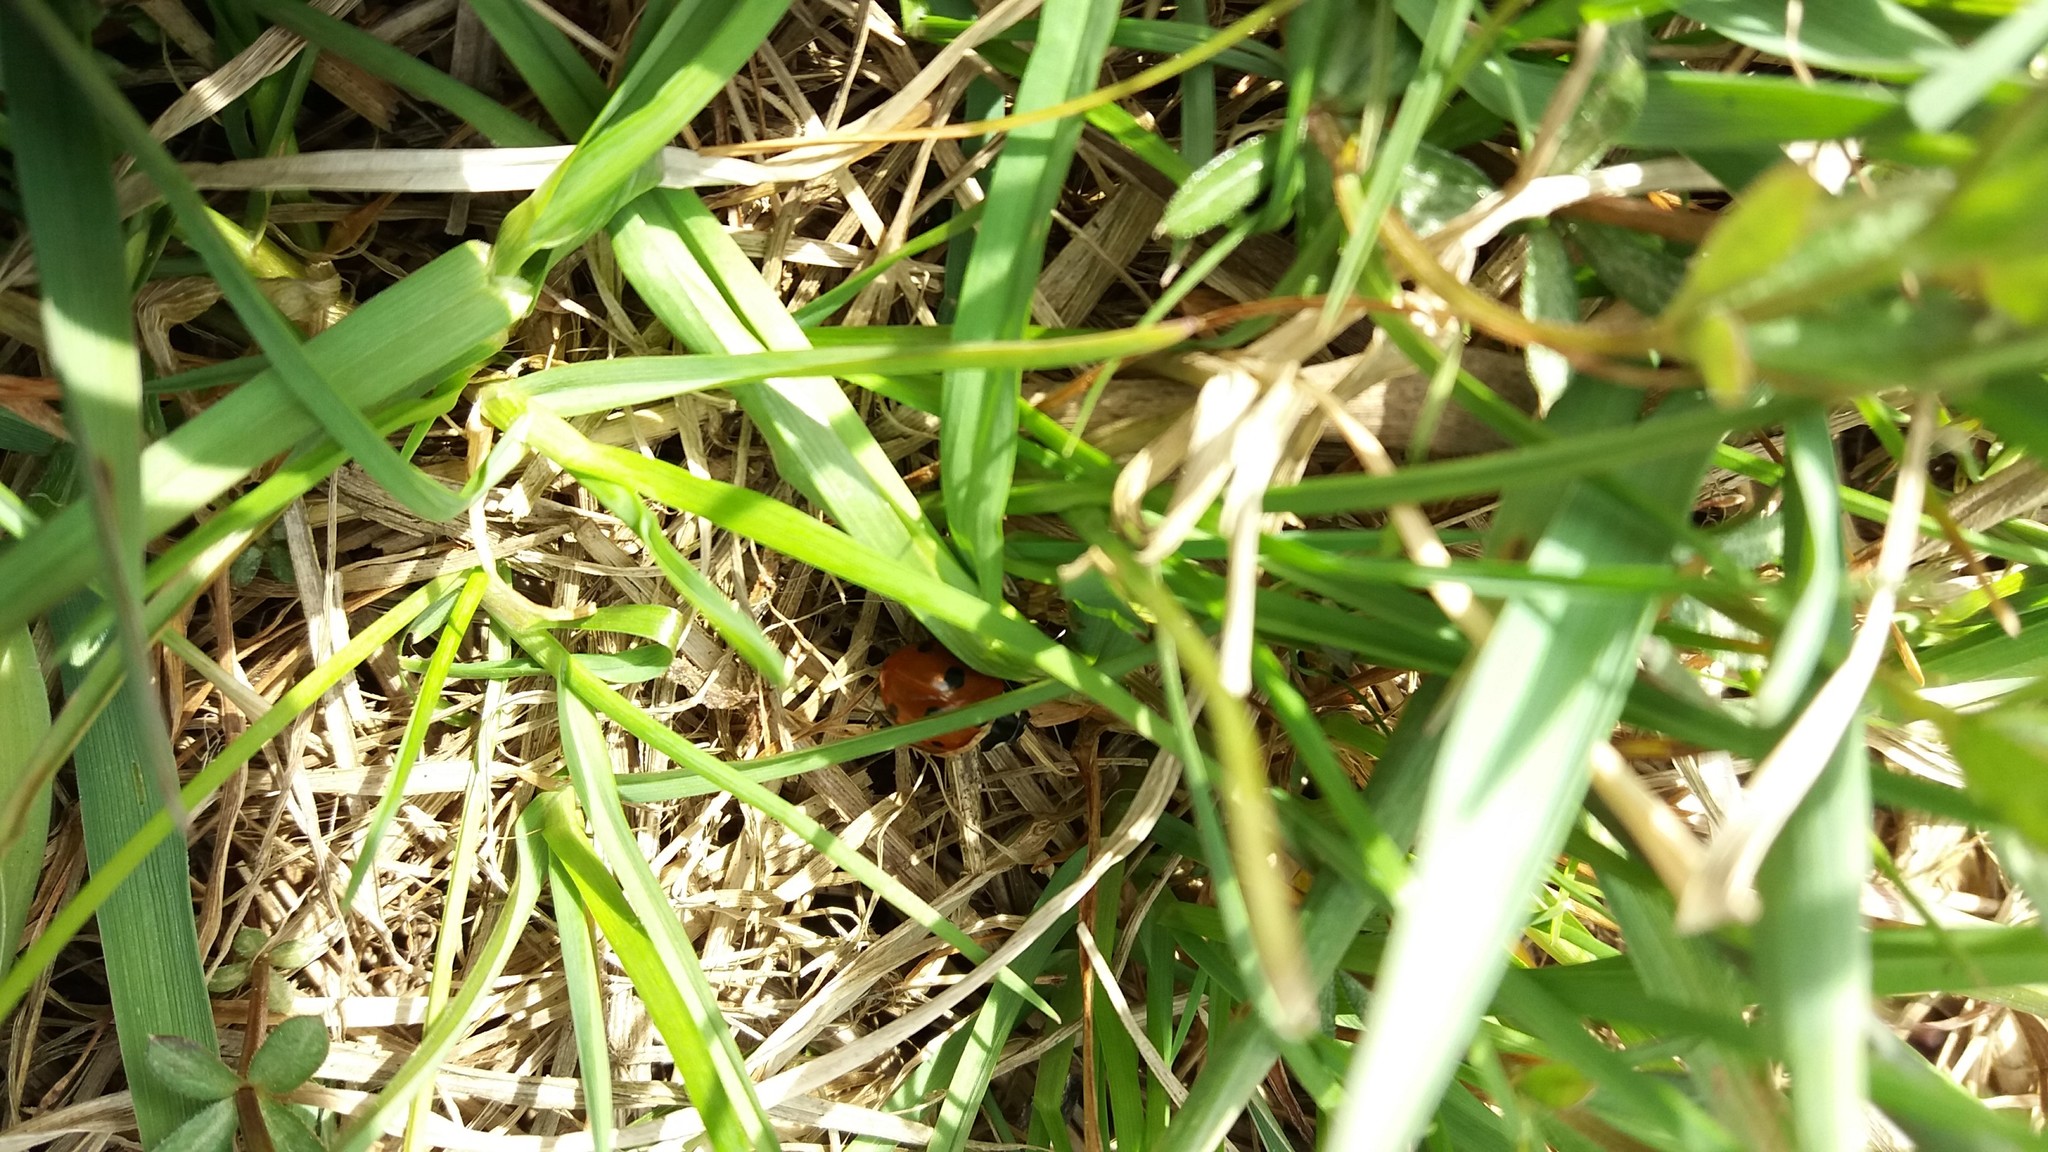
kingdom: Animalia
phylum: Arthropoda
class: Insecta
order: Coleoptera
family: Coccinellidae
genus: Coccinella
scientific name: Coccinella septempunctata
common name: Sevenspotted lady beetle
